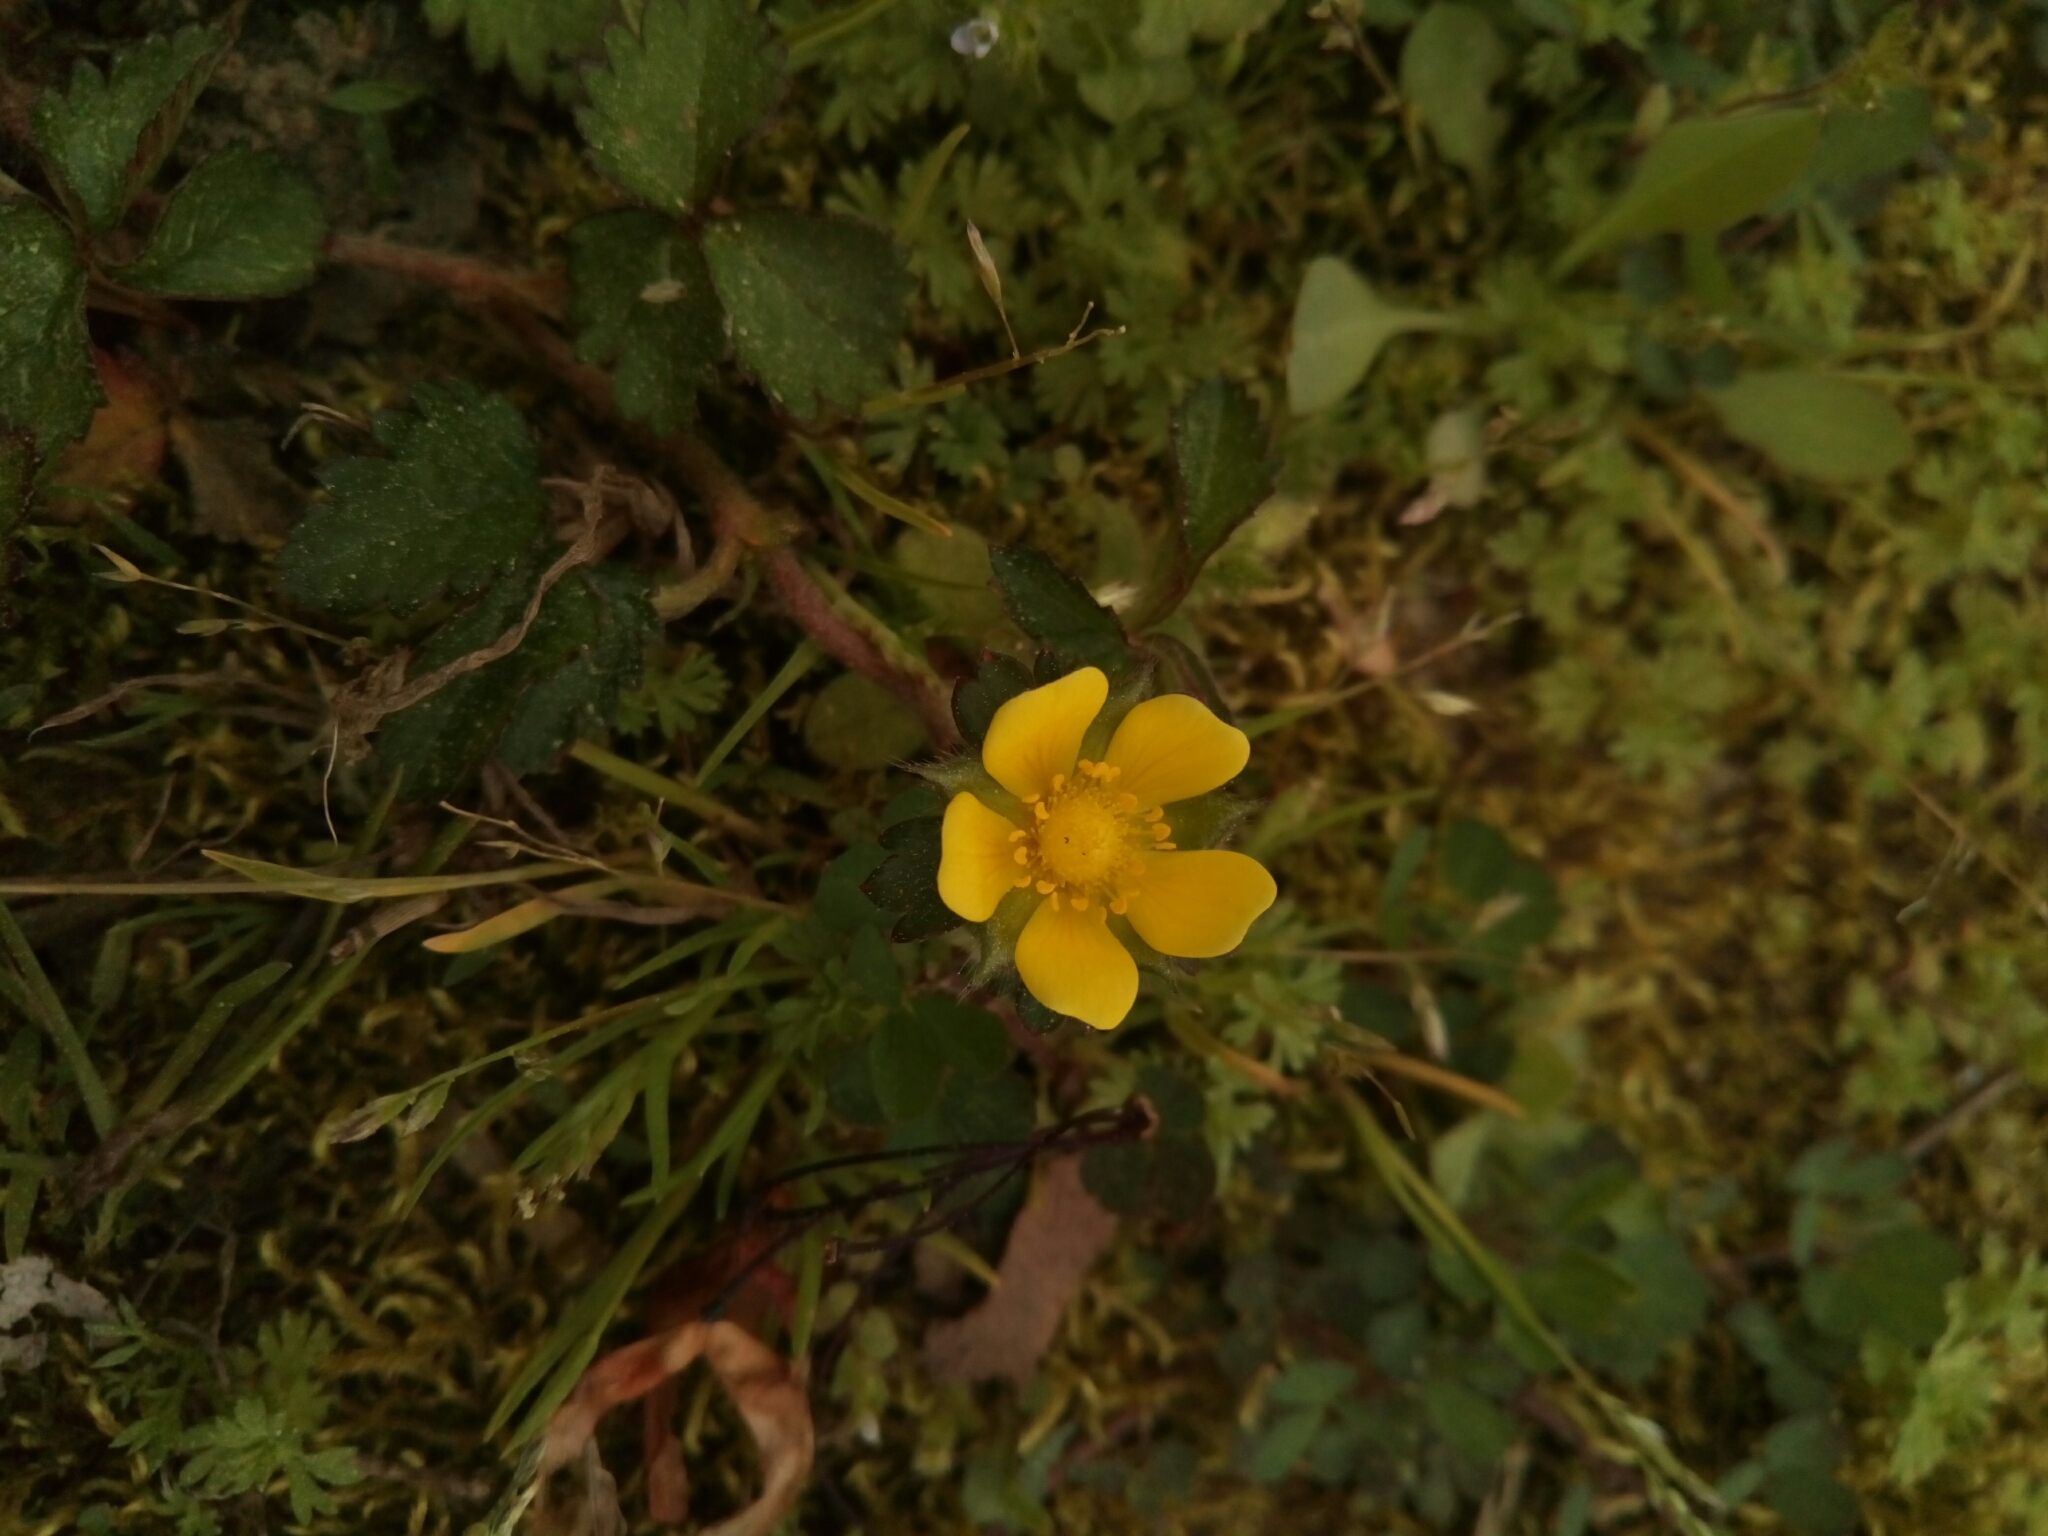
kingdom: Plantae
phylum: Tracheophyta
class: Magnoliopsida
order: Rosales
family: Rosaceae
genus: Potentilla
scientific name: Potentilla indica
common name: Yellow-flowered strawberry
